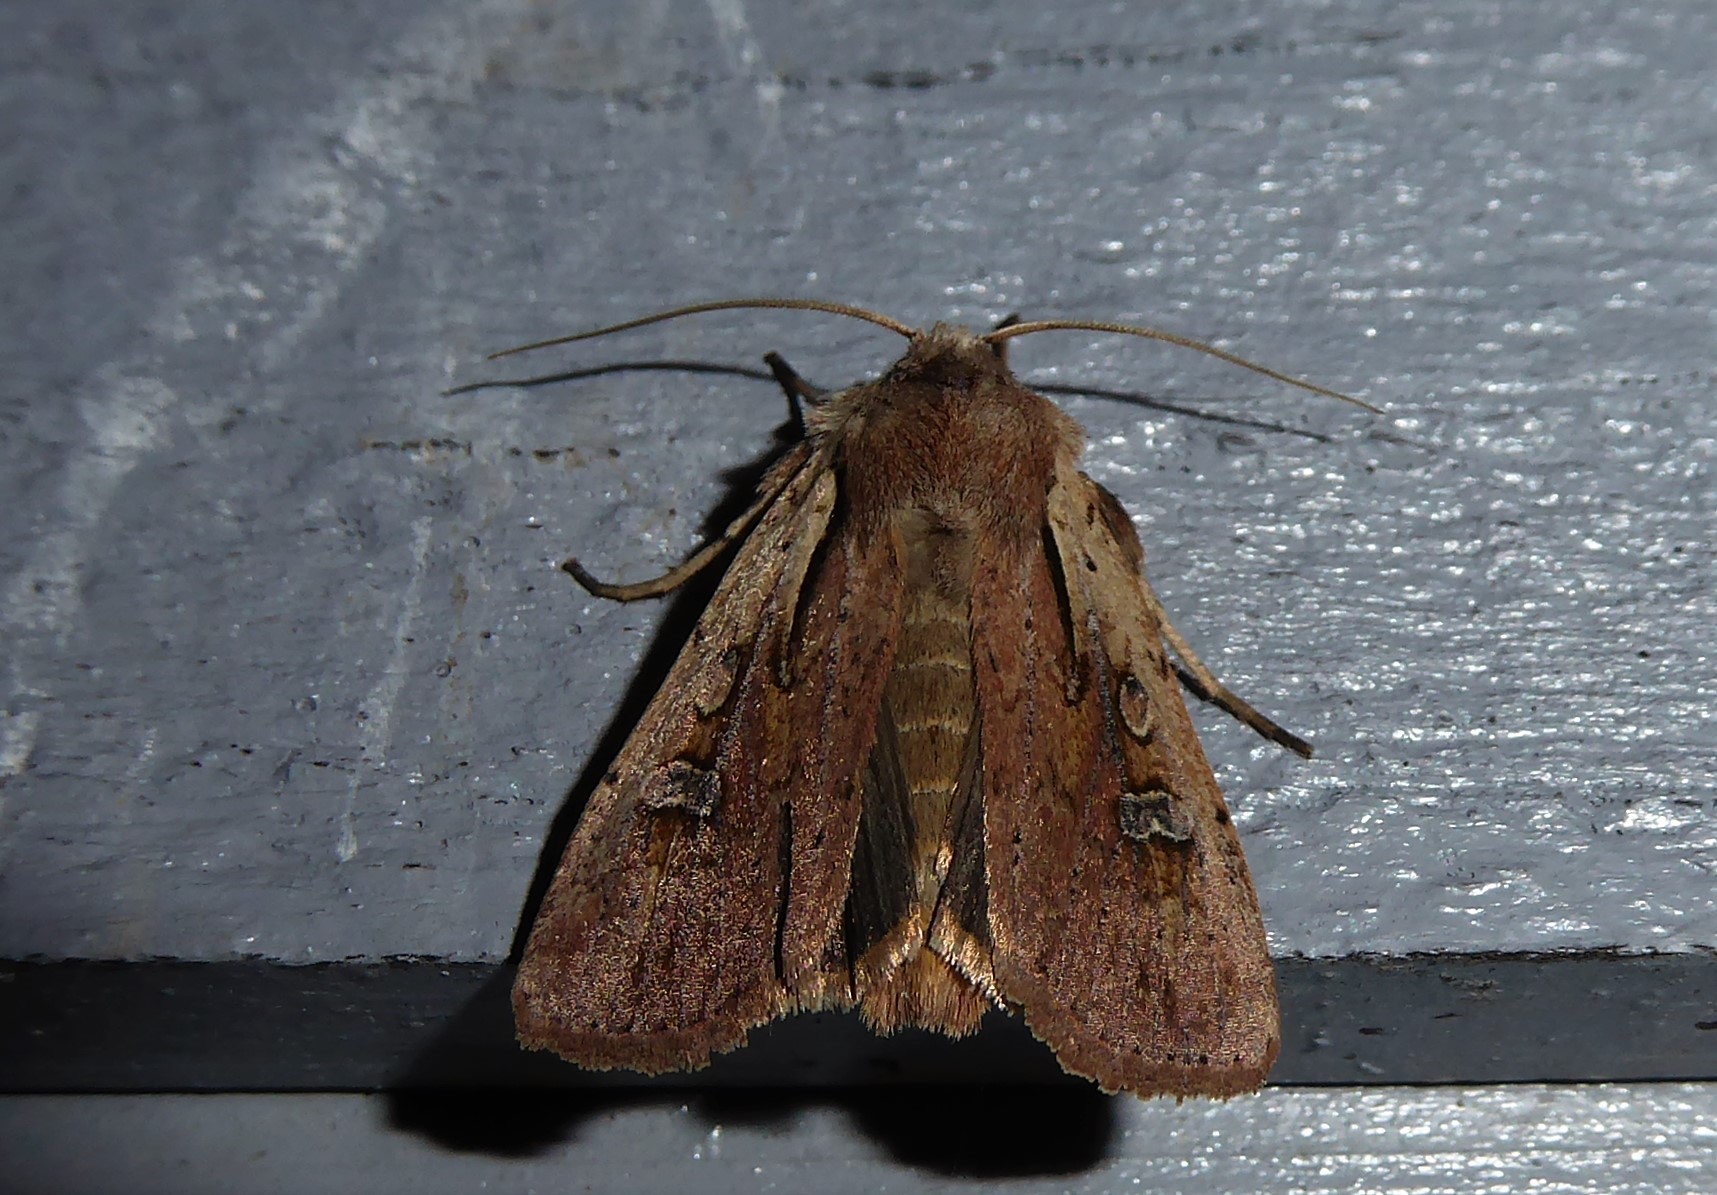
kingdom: Animalia
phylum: Arthropoda
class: Insecta
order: Lepidoptera
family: Noctuidae
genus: Ichneutica
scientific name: Ichneutica atristriga
